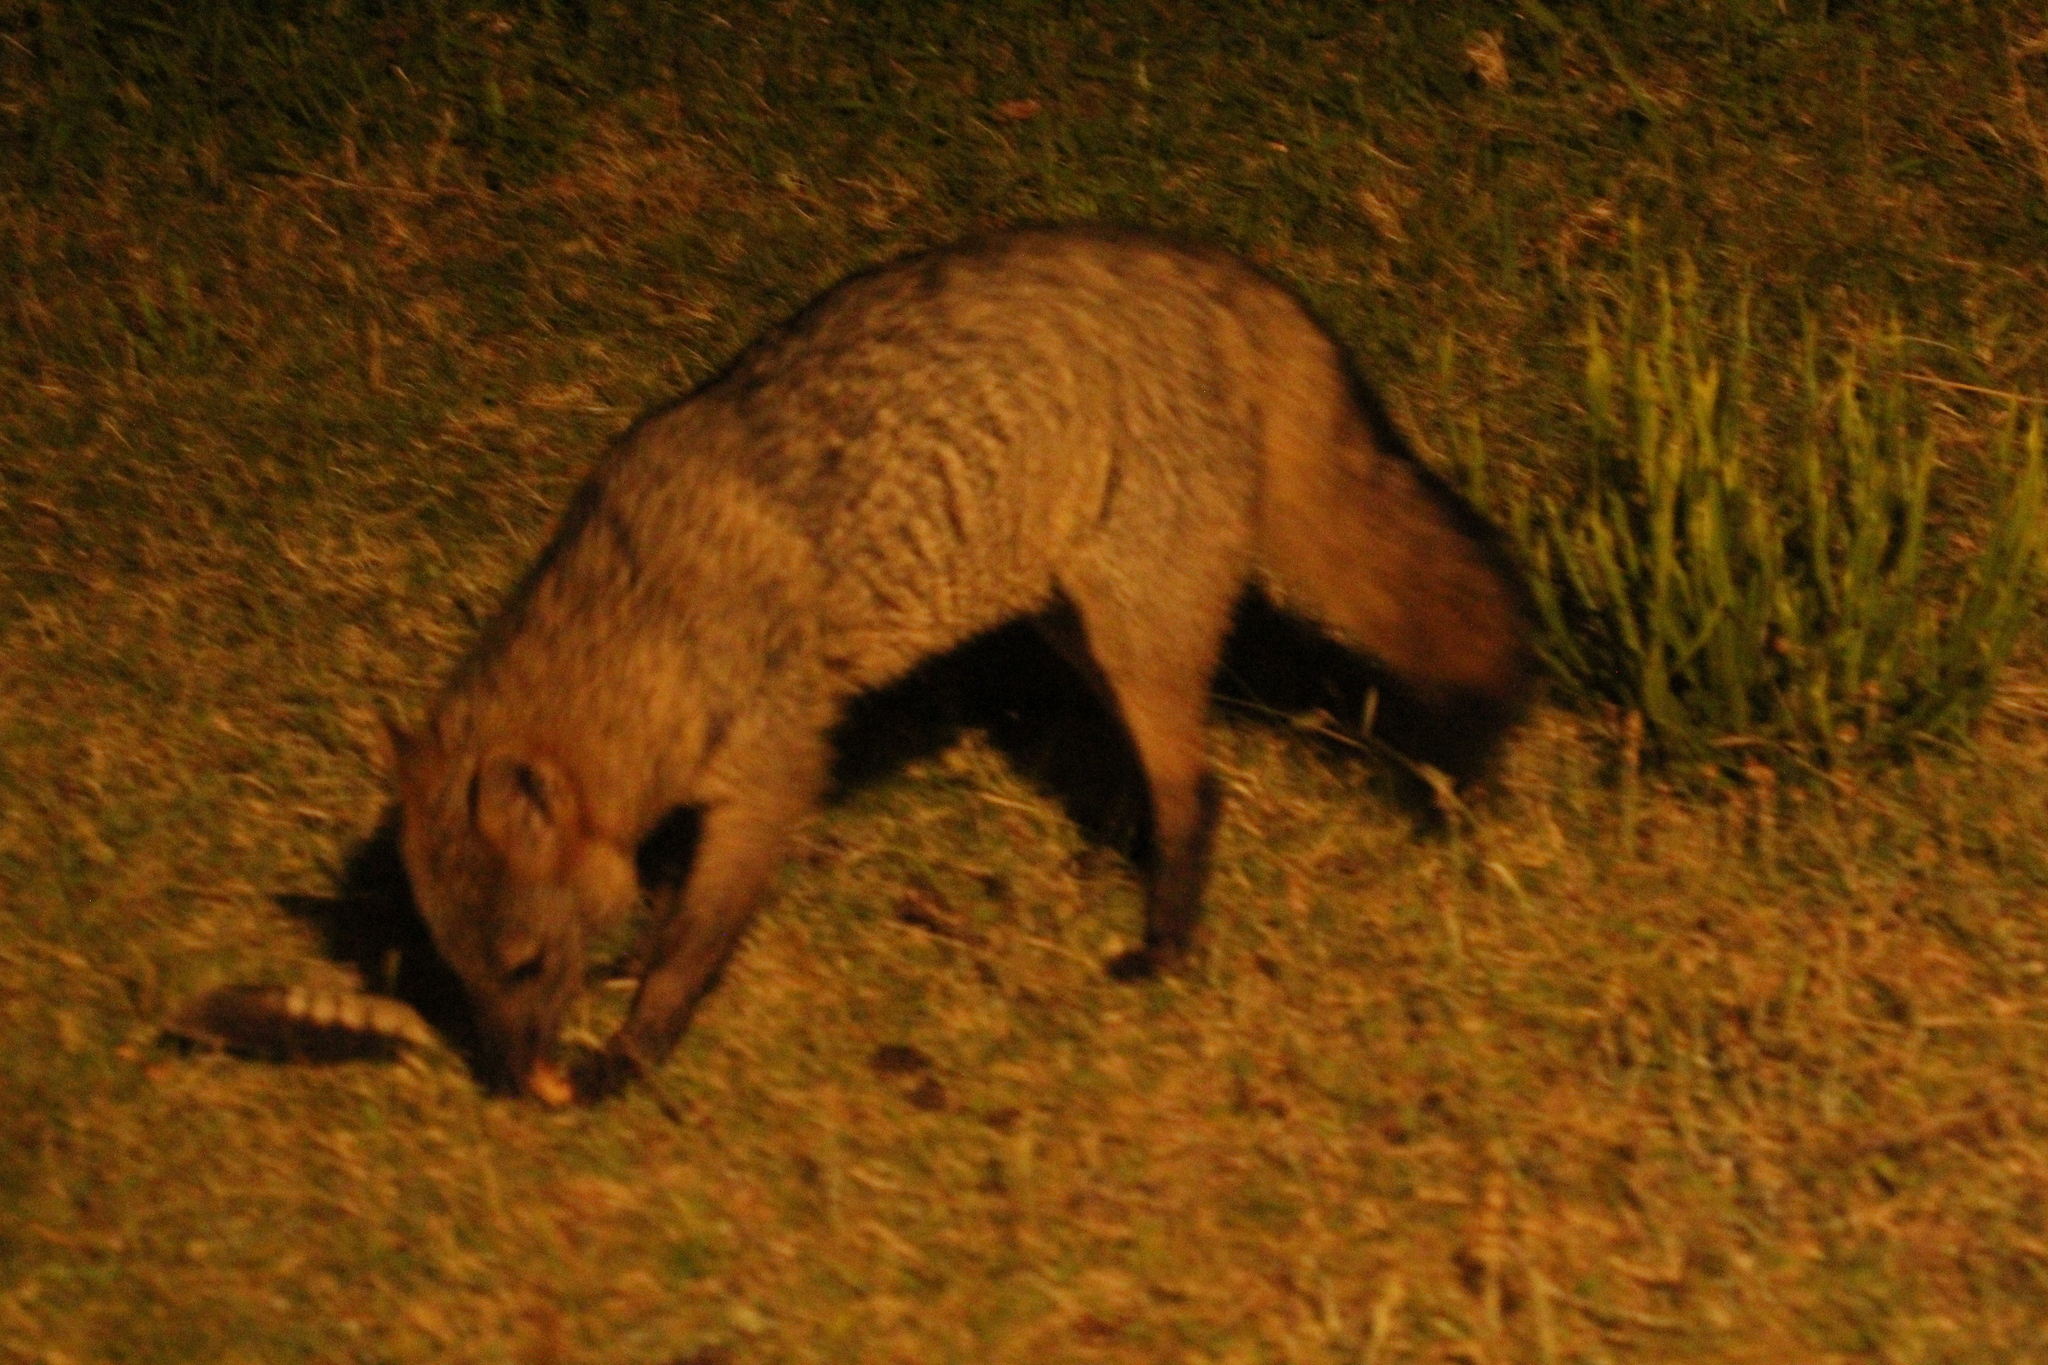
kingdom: Animalia
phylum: Chordata
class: Mammalia
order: Carnivora
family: Canidae
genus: Cerdocyon
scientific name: Cerdocyon thous
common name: Crab-eating fox
